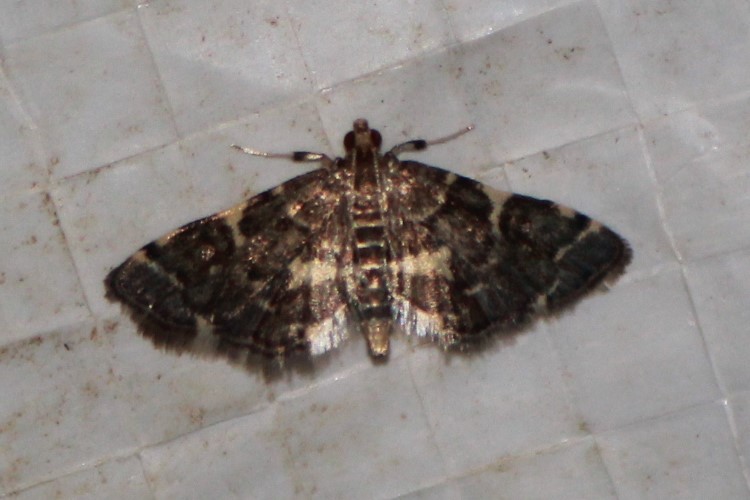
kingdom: Animalia
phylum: Arthropoda
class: Insecta
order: Lepidoptera
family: Crambidae
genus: Anageshna
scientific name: Anageshna primordialis
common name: Yellow-spotted webworm moth
